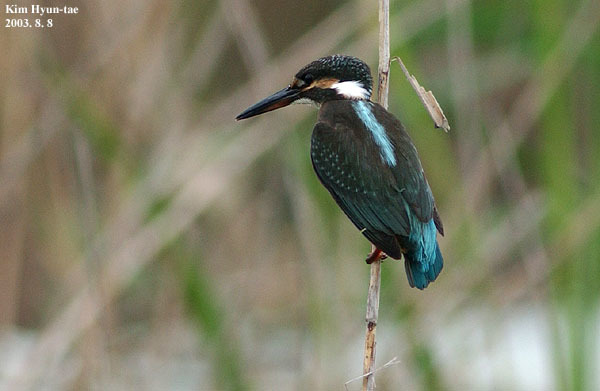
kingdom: Animalia
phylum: Chordata
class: Aves
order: Coraciiformes
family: Alcedinidae
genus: Alcedo
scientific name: Alcedo atthis
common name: Common kingfisher
